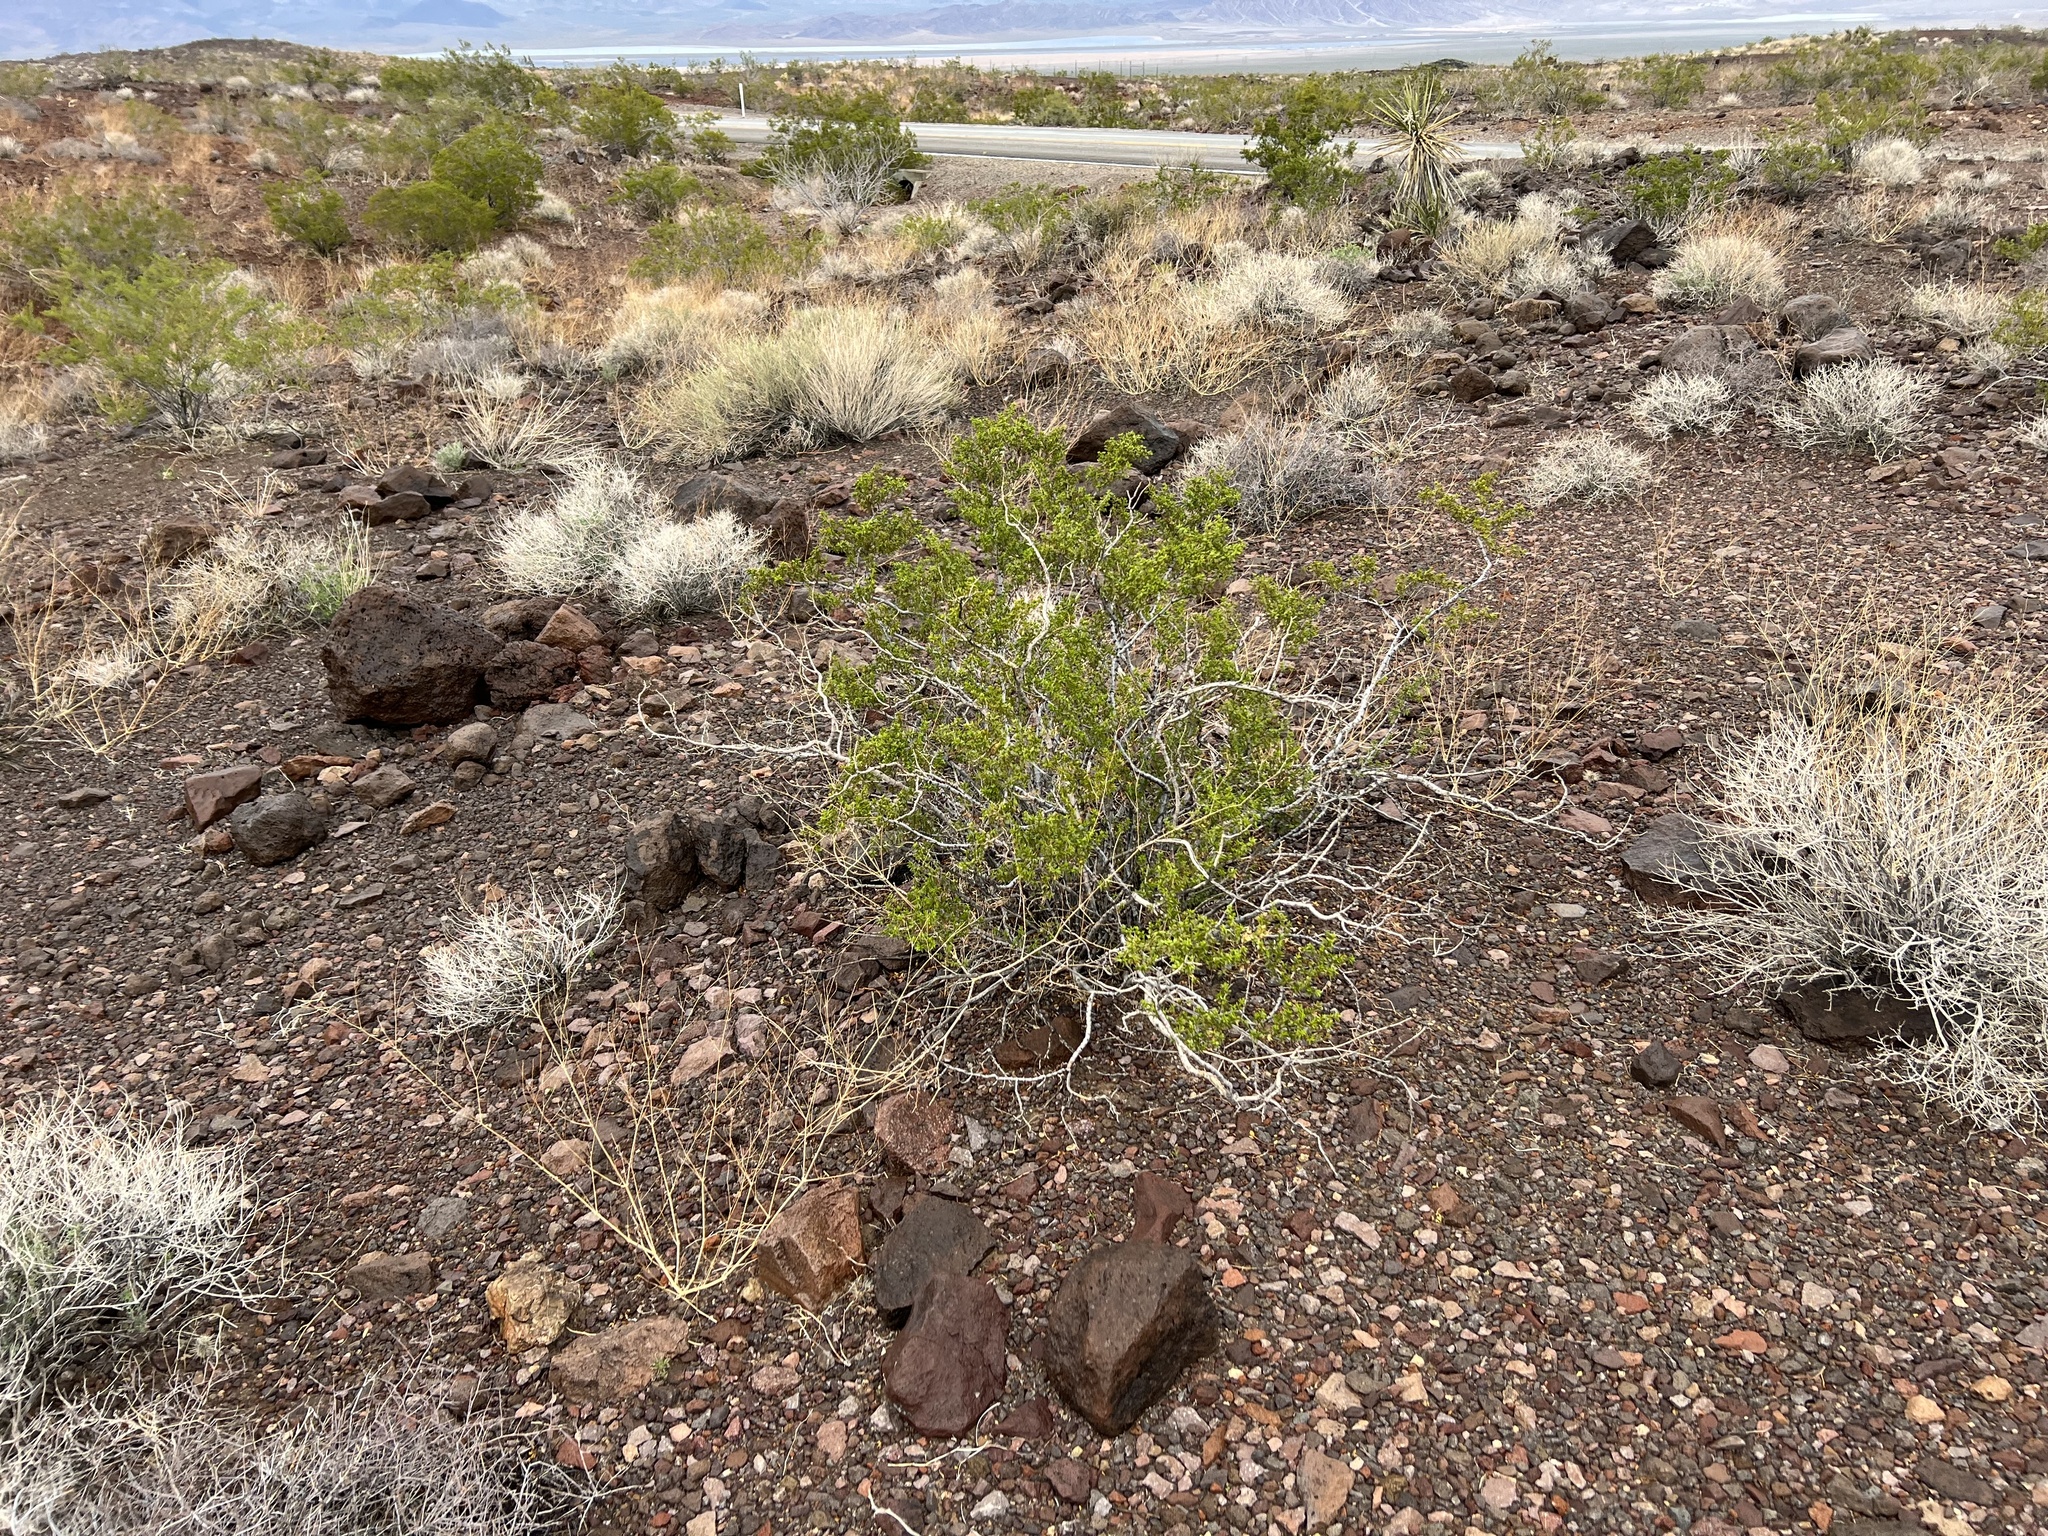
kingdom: Plantae
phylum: Tracheophyta
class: Magnoliopsida
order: Zygophyllales
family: Zygophyllaceae
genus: Larrea
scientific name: Larrea tridentata
